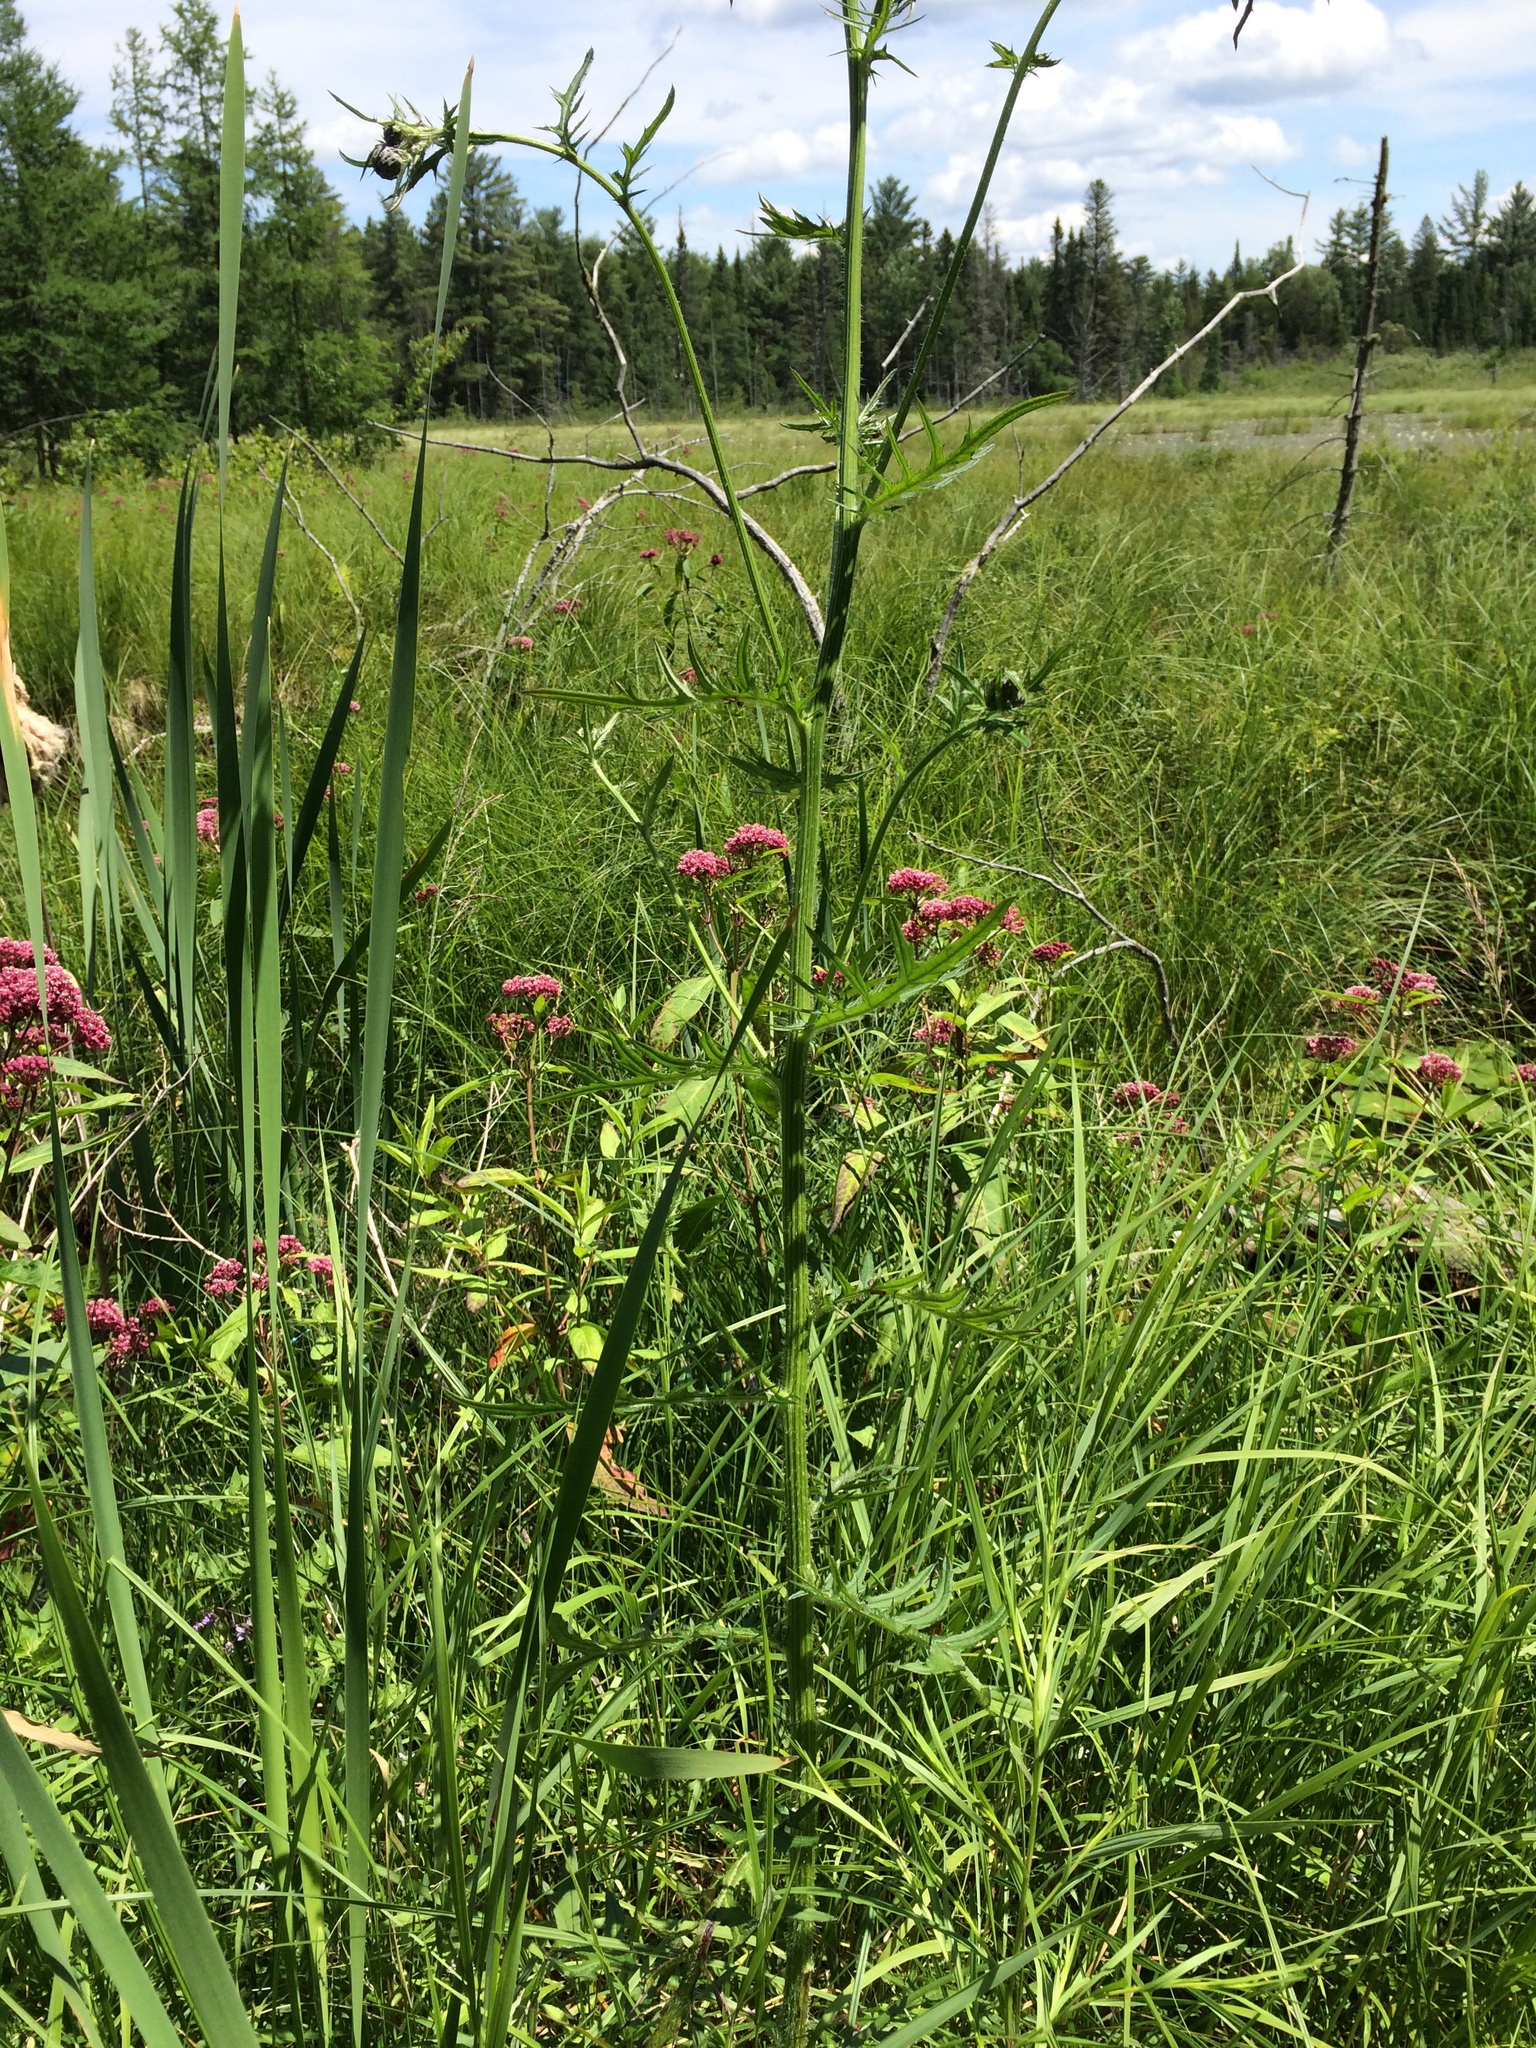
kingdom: Plantae
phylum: Tracheophyta
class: Magnoliopsida
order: Asterales
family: Asteraceae
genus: Cirsium
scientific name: Cirsium muticum
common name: Dunce-nettle
